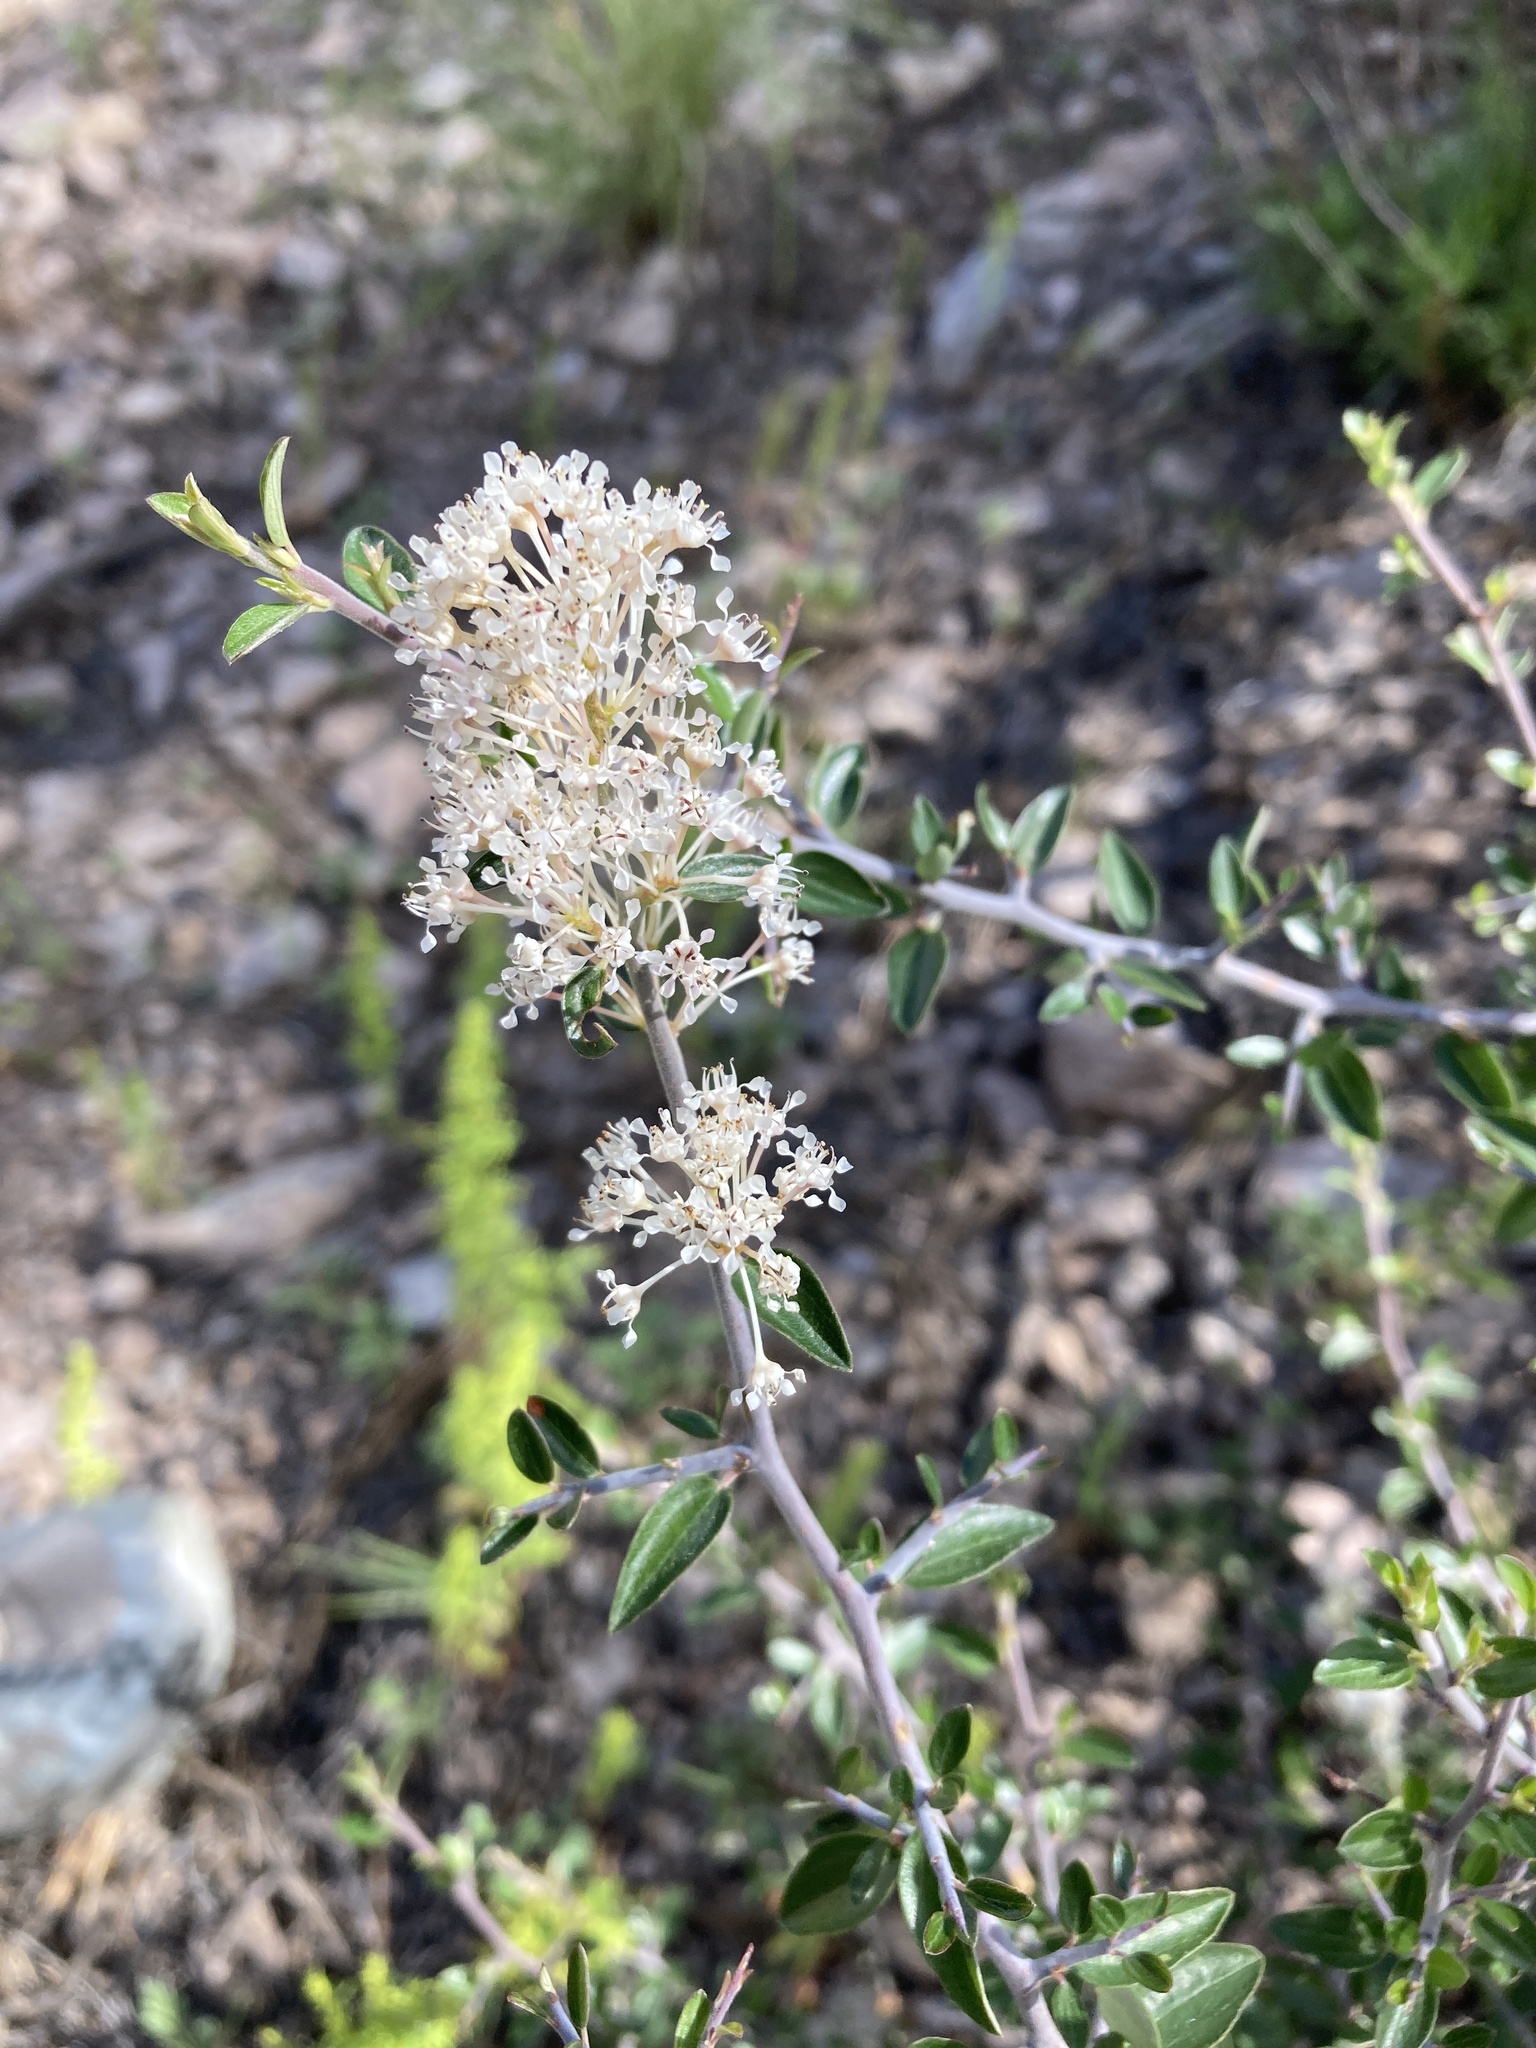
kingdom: Plantae
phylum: Tracheophyta
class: Magnoliopsida
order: Rosales
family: Rhamnaceae
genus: Ceanothus
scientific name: Ceanothus fendleri
